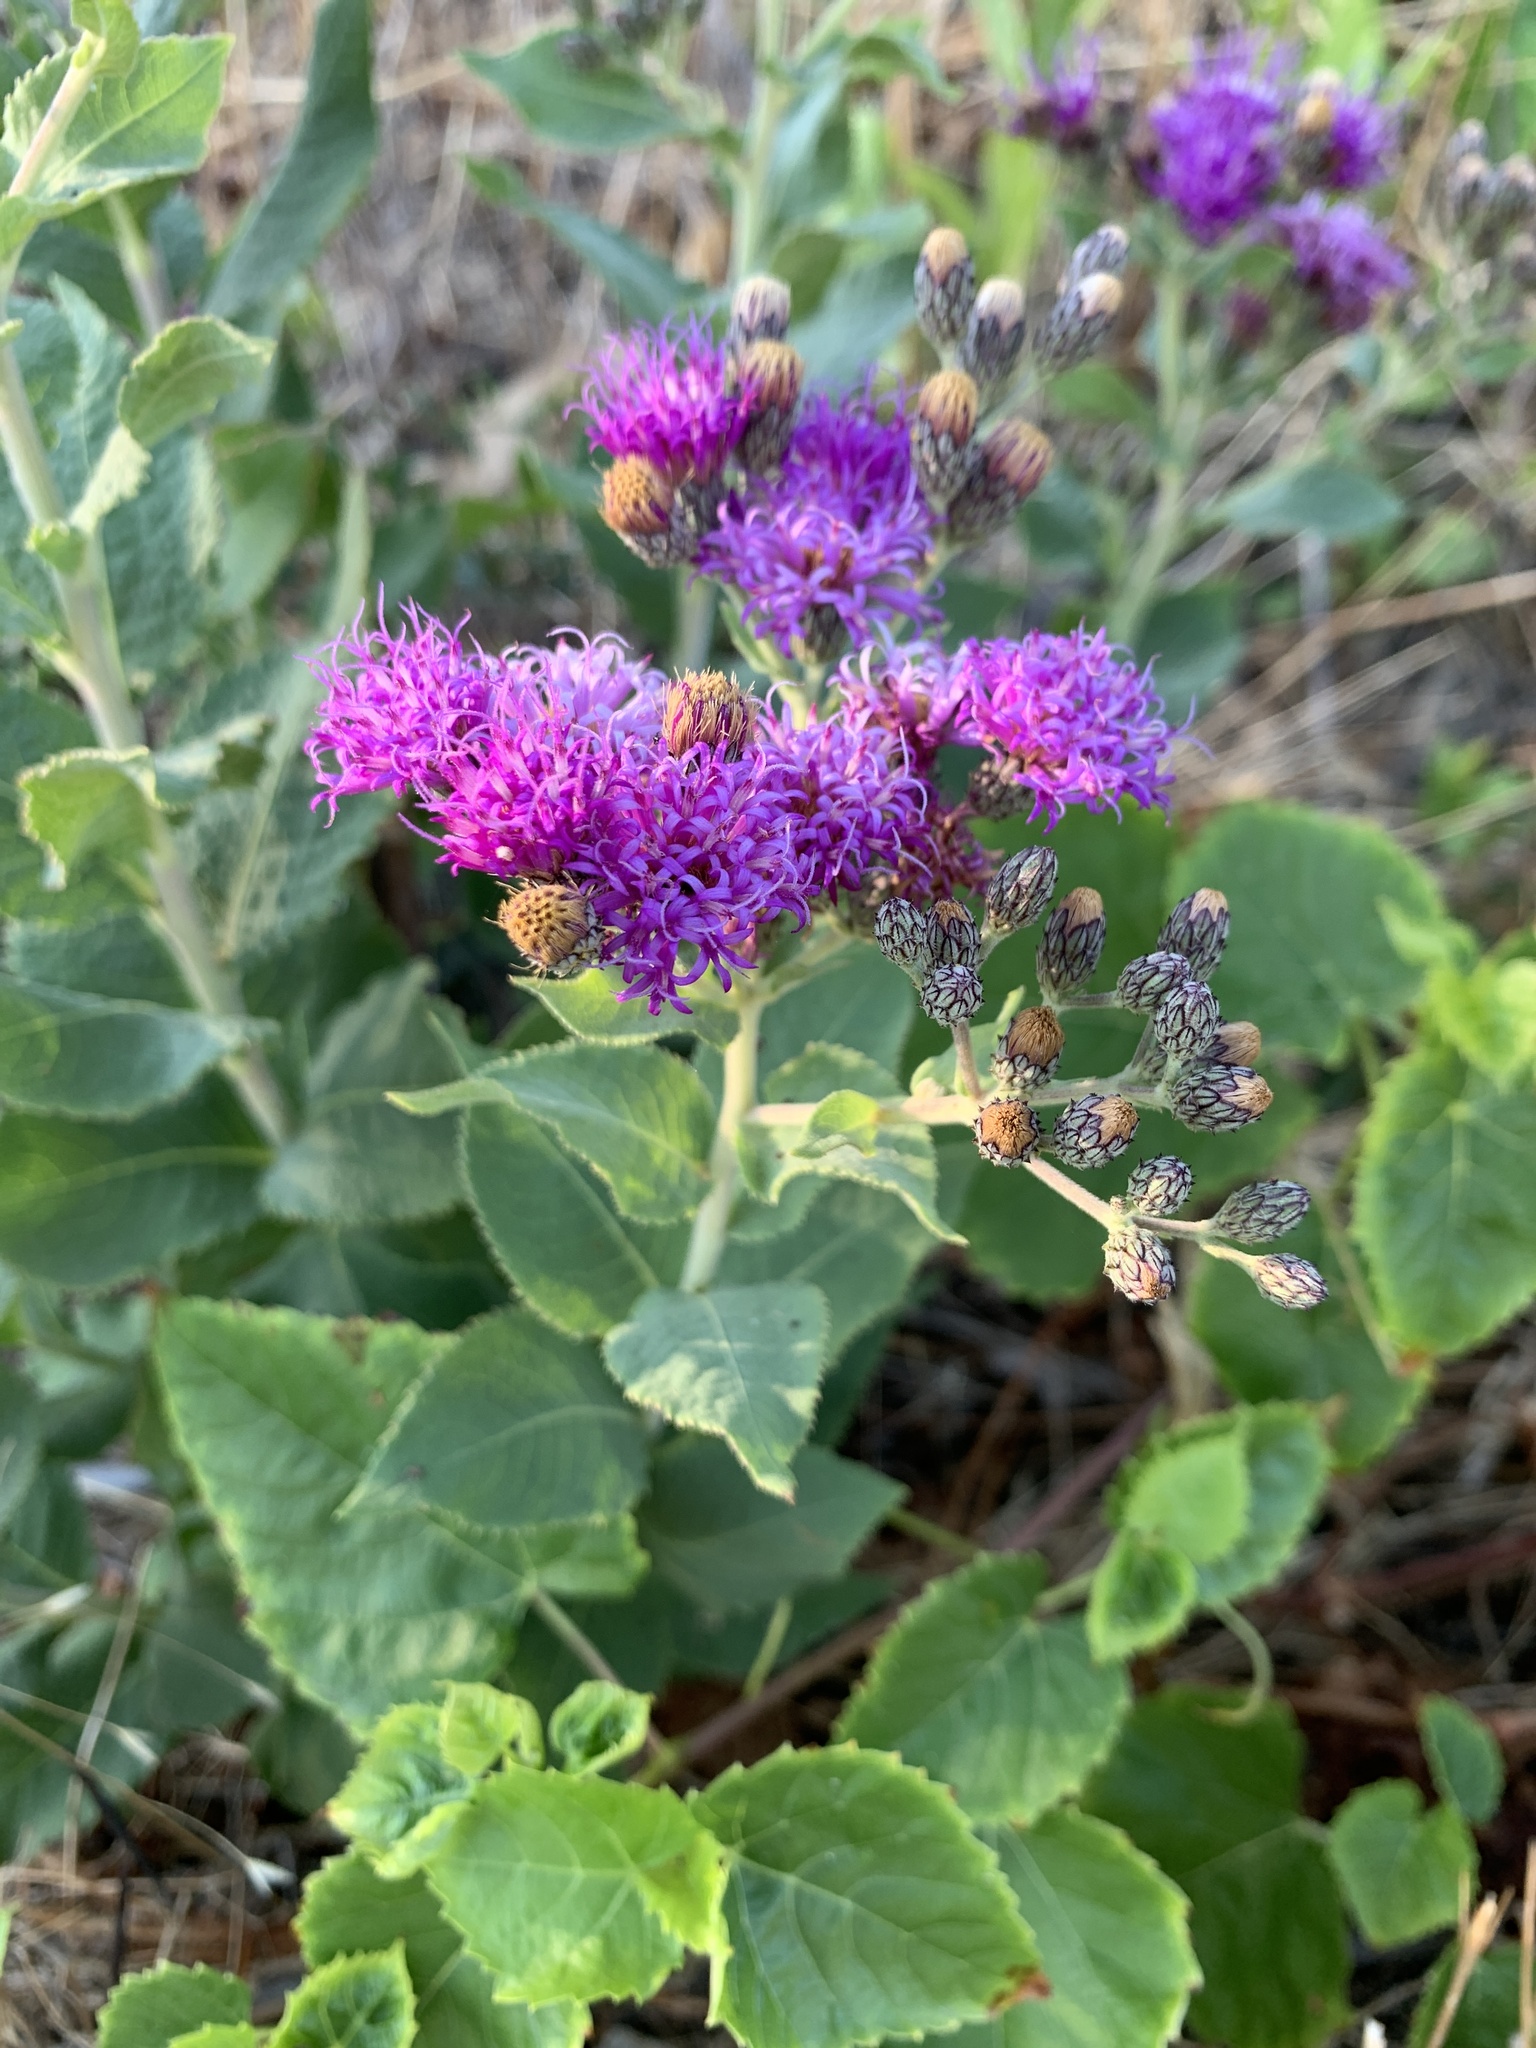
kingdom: Plantae
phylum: Tracheophyta
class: Magnoliopsida
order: Asterales
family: Asteraceae
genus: Vernonia
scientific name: Vernonia baldwinii
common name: Western ironweed
